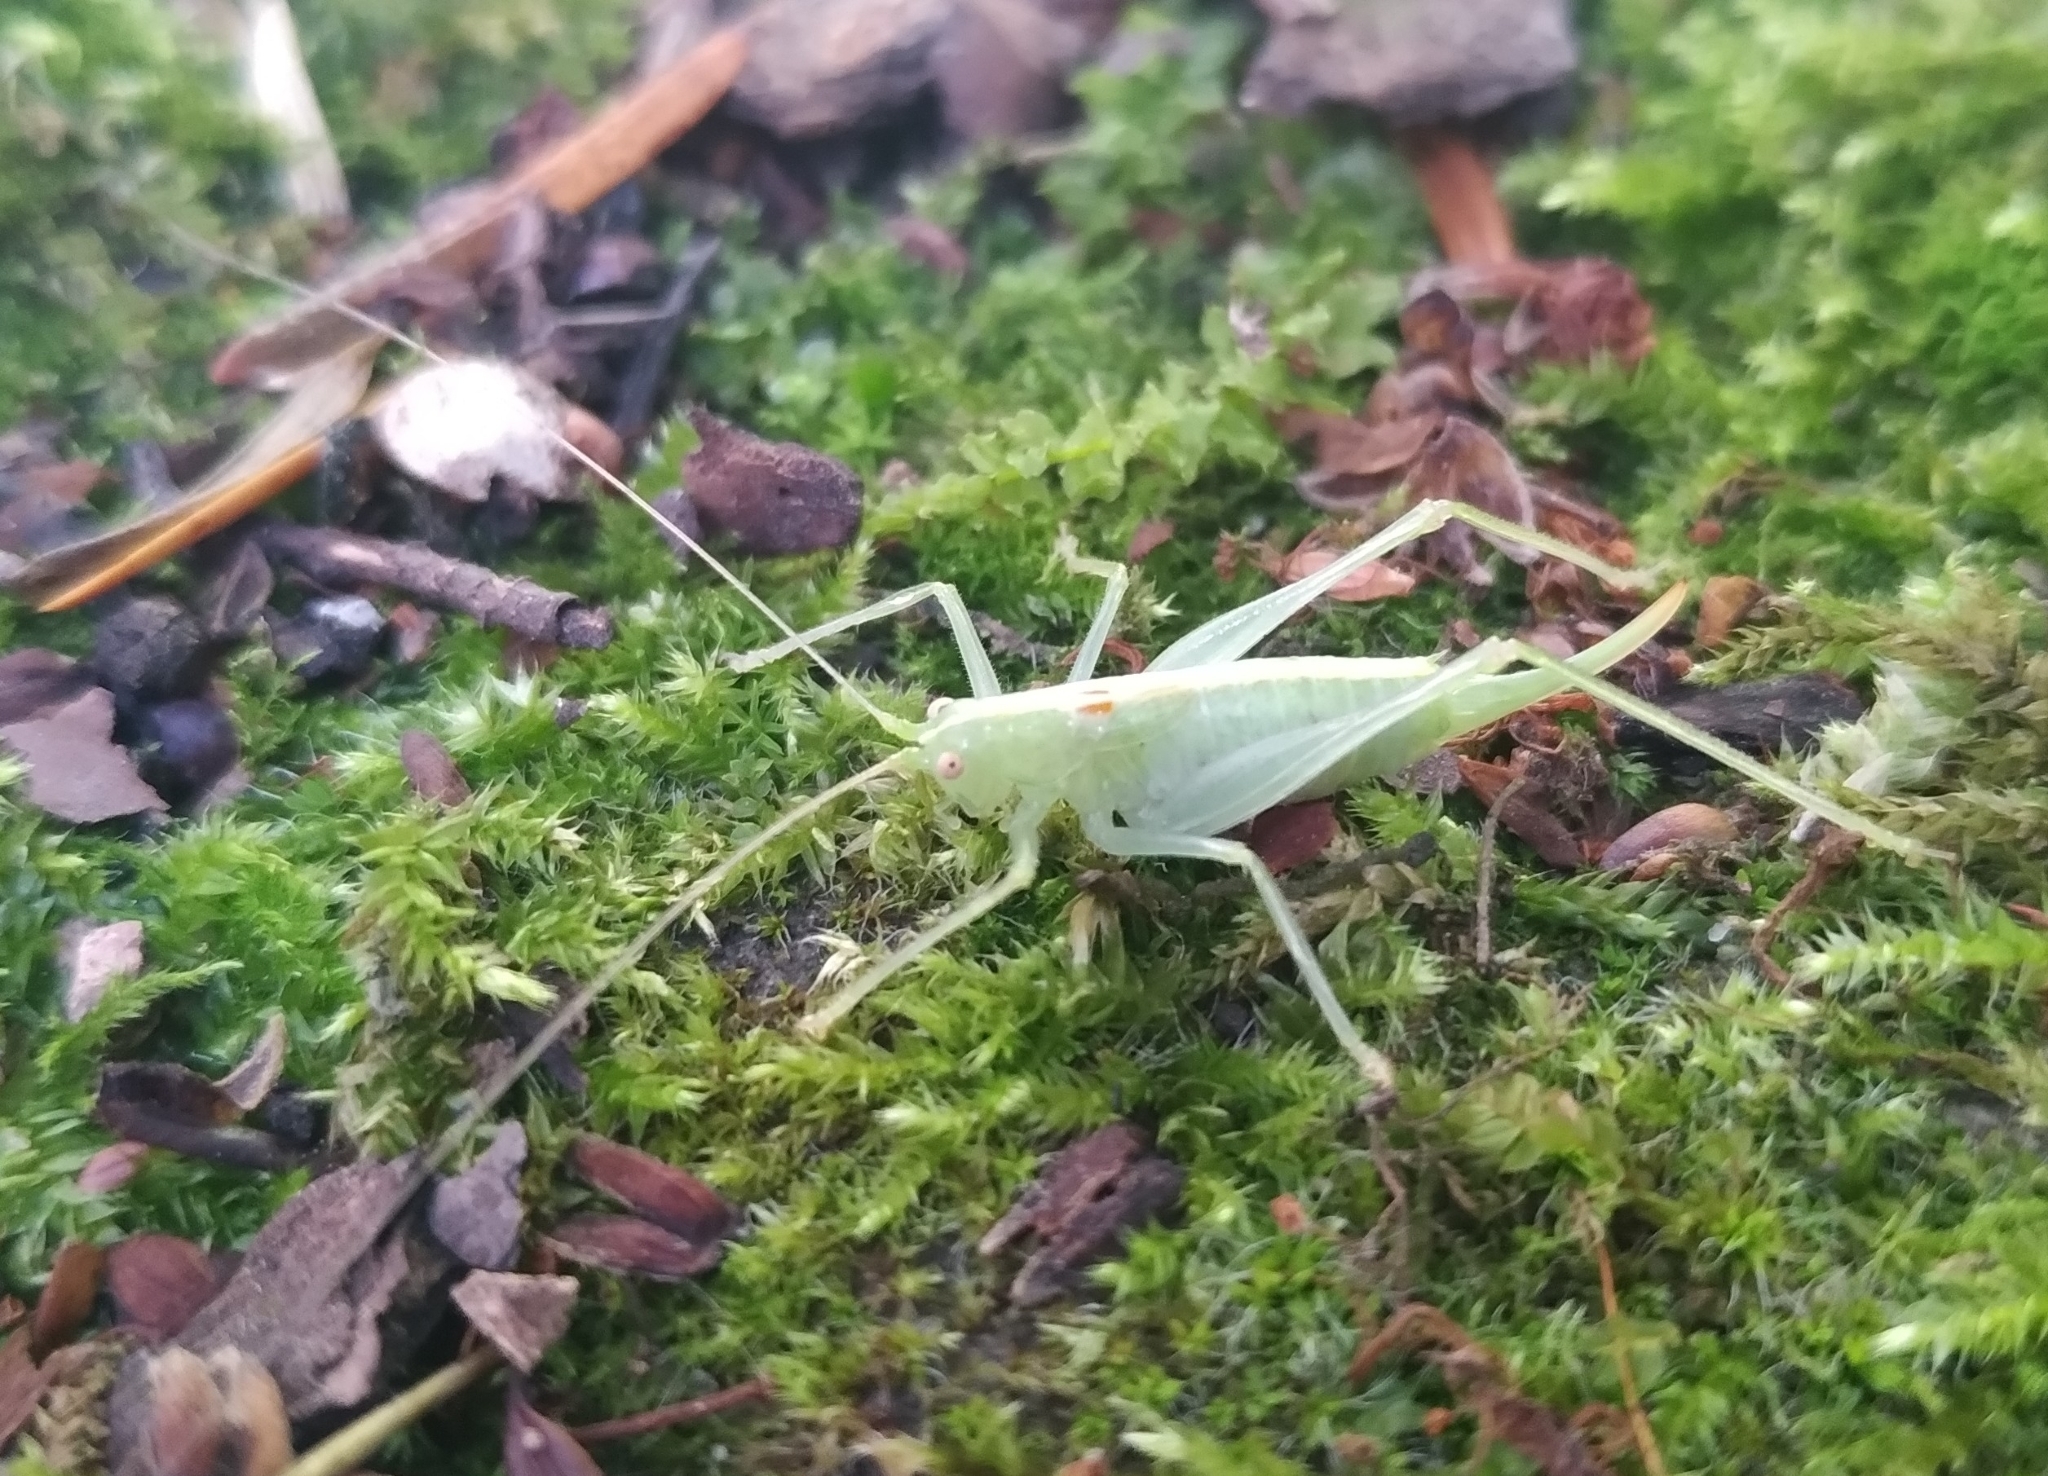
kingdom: Animalia
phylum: Arthropoda
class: Insecta
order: Orthoptera
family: Tettigoniidae
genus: Meconema
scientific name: Meconema meridionale
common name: Southern oak bush-cricket
